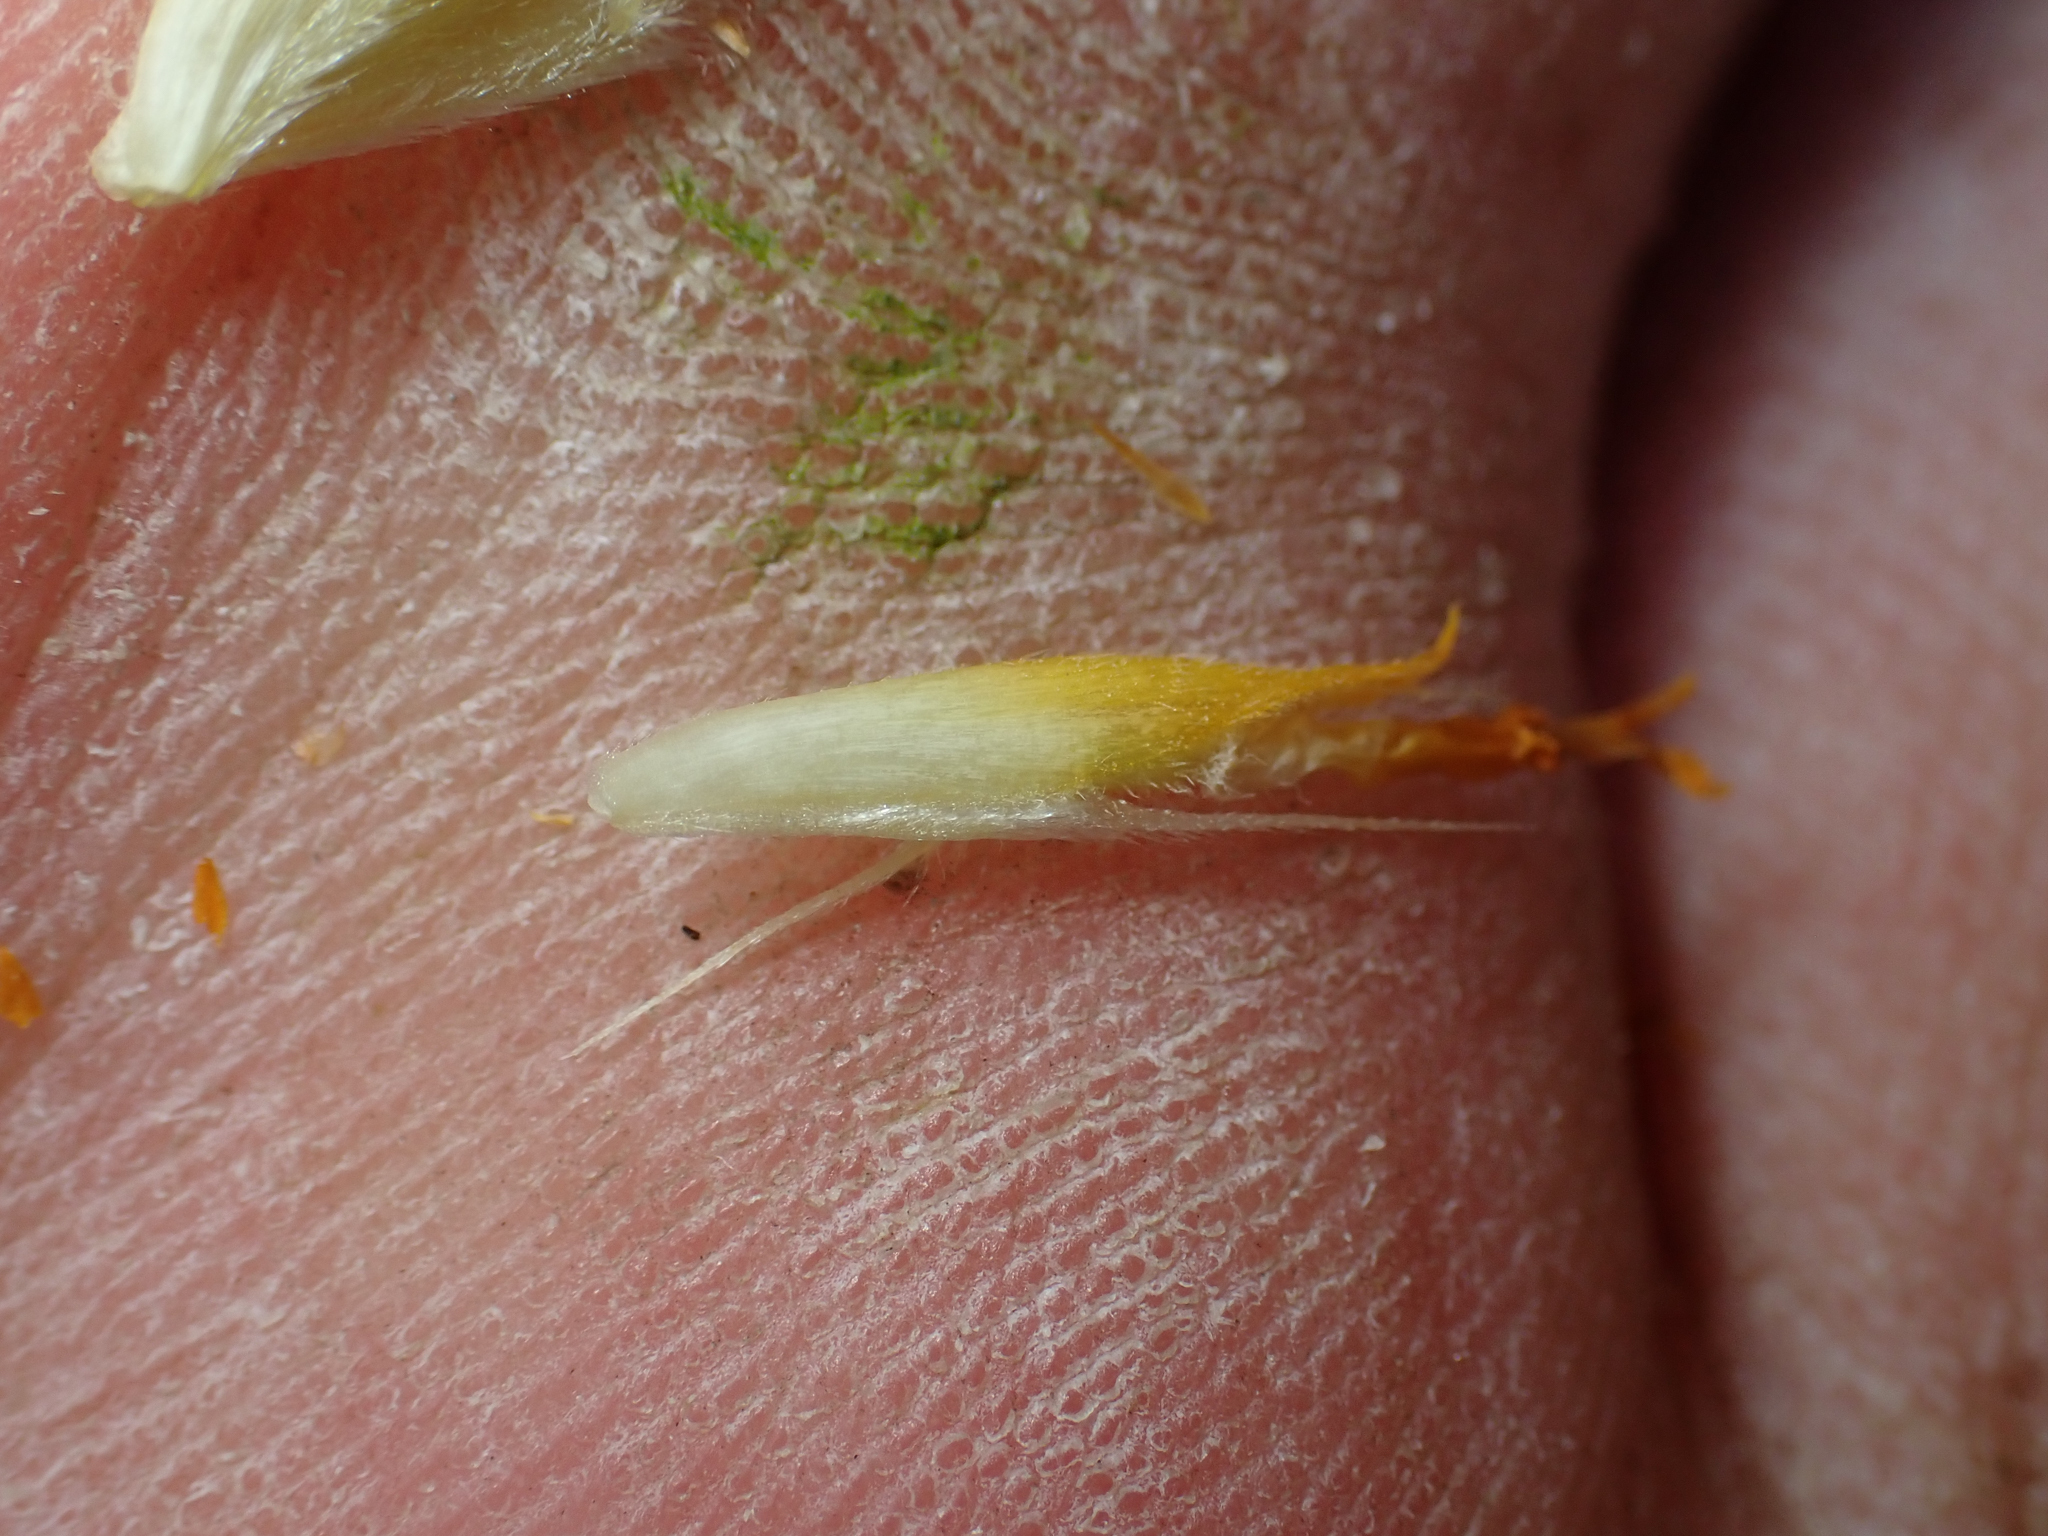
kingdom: Plantae
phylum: Tracheophyta
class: Magnoliopsida
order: Asterales
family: Asteraceae
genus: Verbesina
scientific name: Verbesina palmeri
